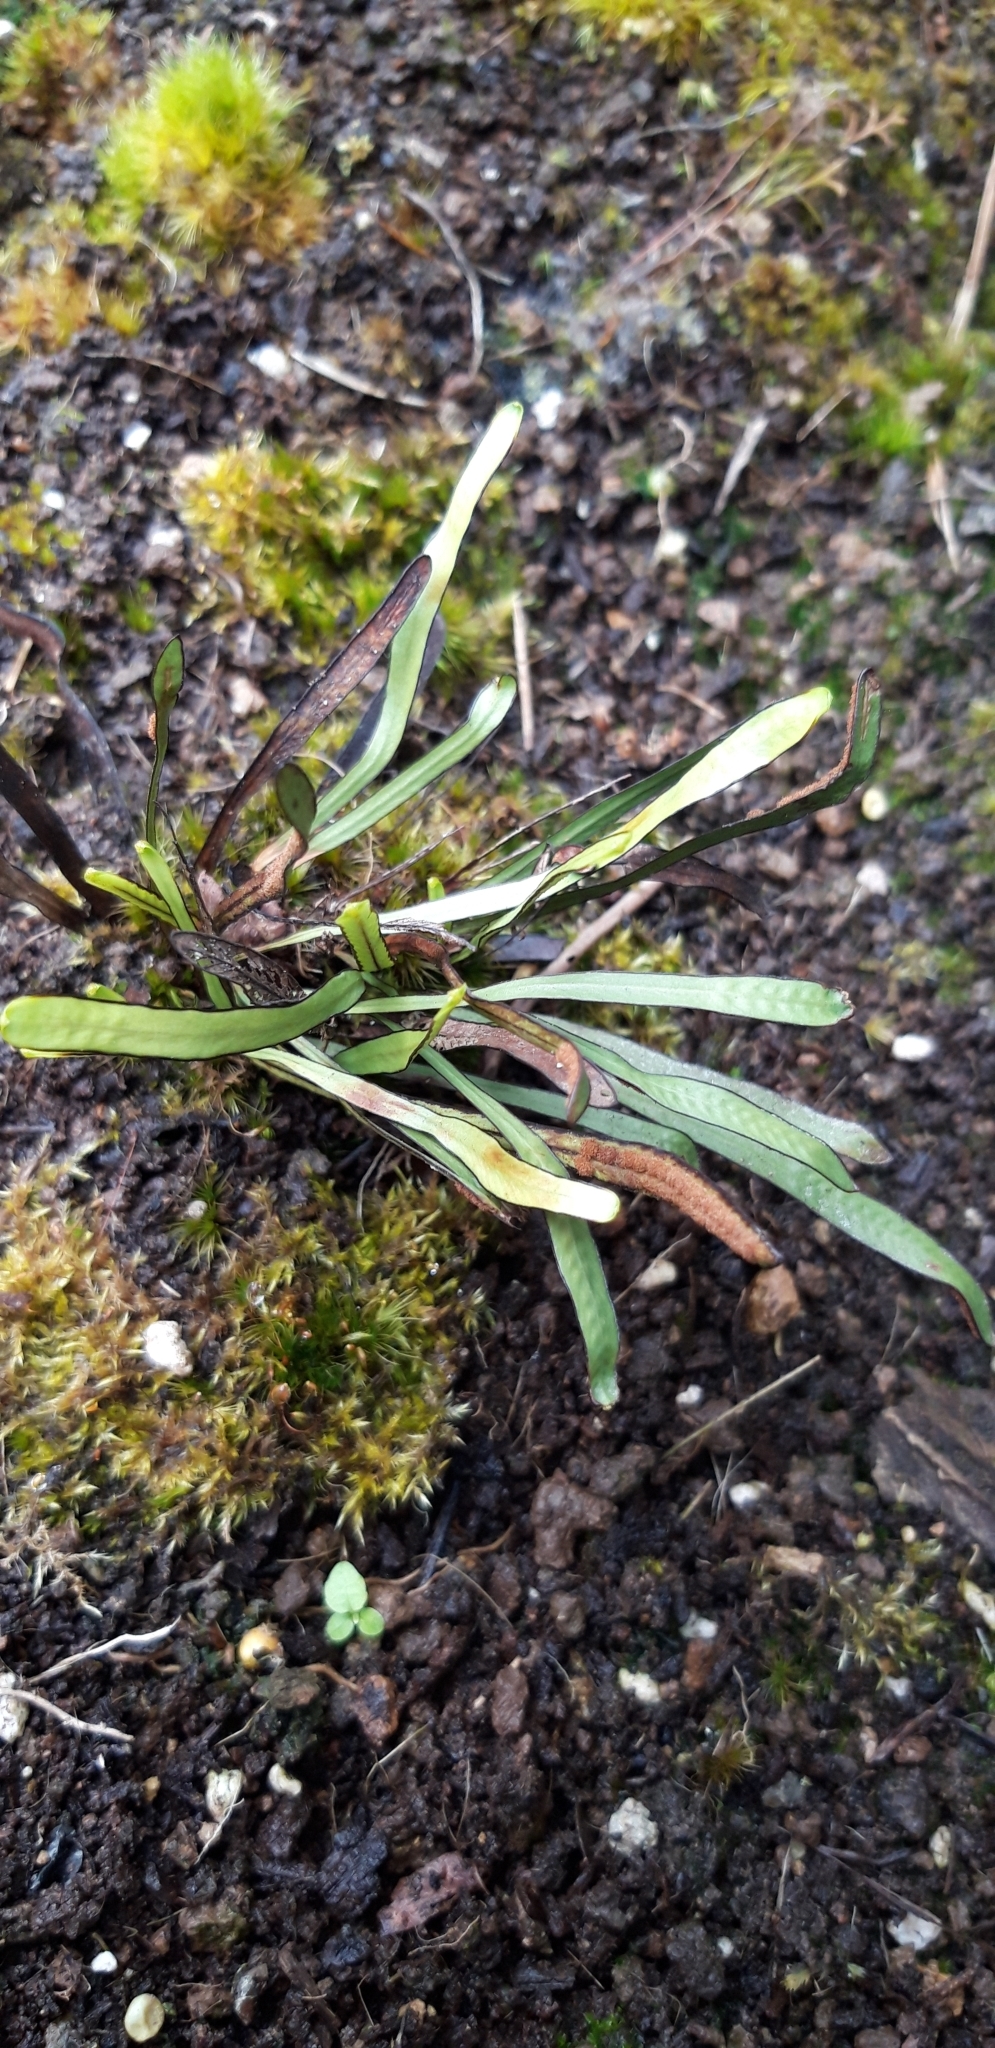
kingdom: Plantae
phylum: Tracheophyta
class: Polypodiopsida
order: Polypodiales
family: Polypodiaceae
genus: Grammitis
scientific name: Grammitis ebenina
